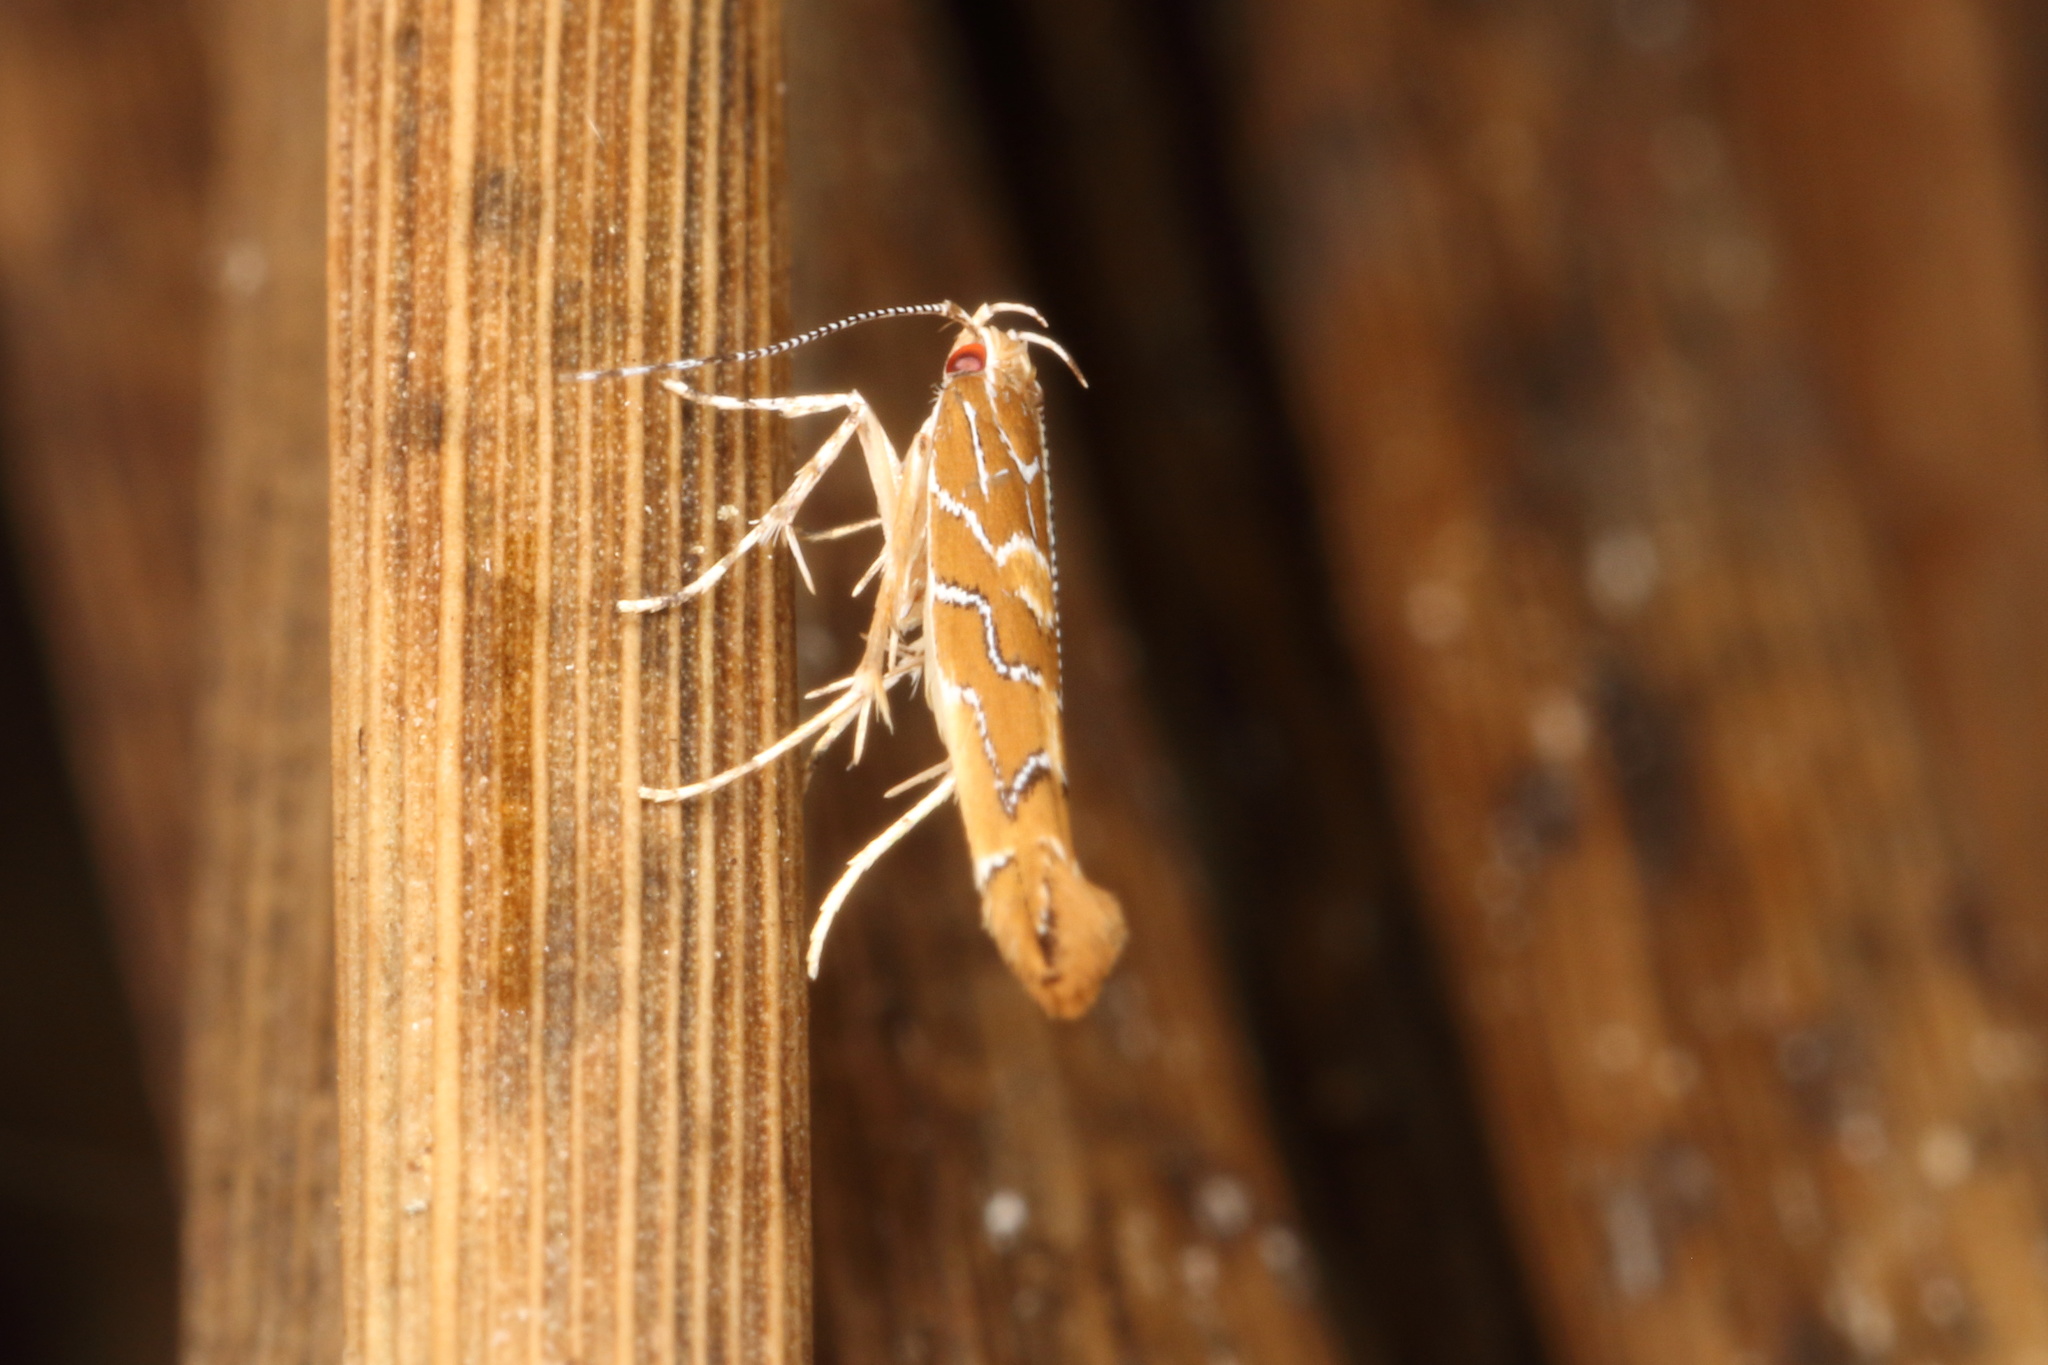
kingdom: Animalia
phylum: Arthropoda
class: Insecta
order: Lepidoptera
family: Cosmopterigidae
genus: Pyroderces
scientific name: Pyroderces apparitella
